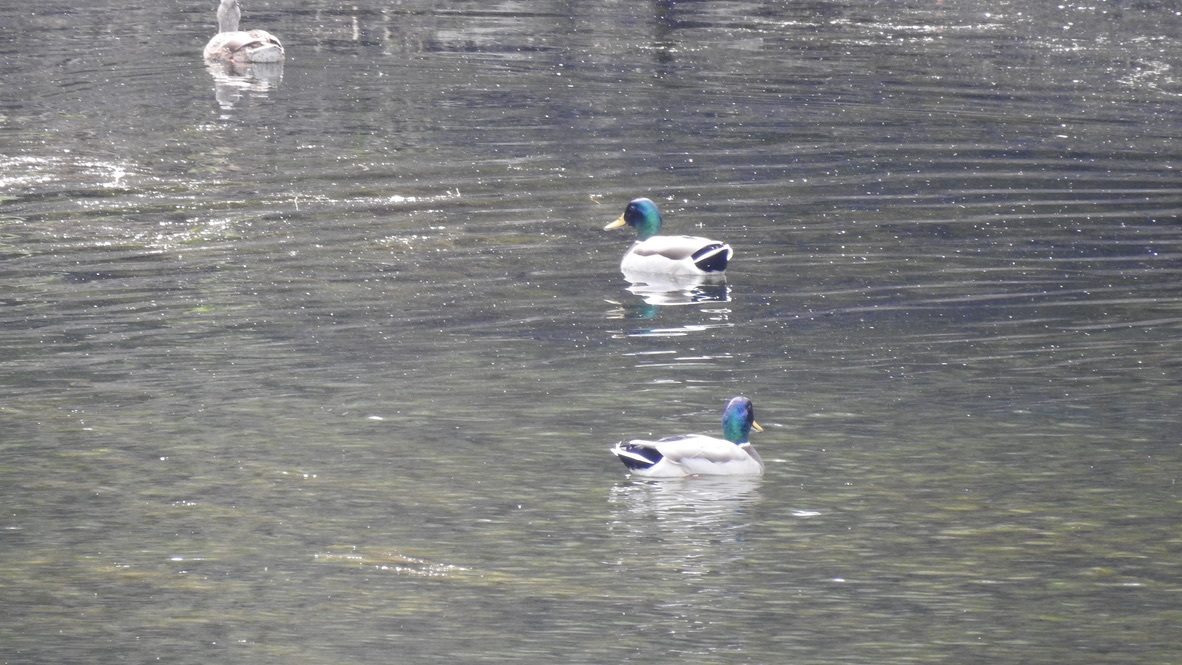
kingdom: Animalia
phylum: Chordata
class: Aves
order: Anseriformes
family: Anatidae
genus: Anas
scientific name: Anas platyrhynchos
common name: Mallard
